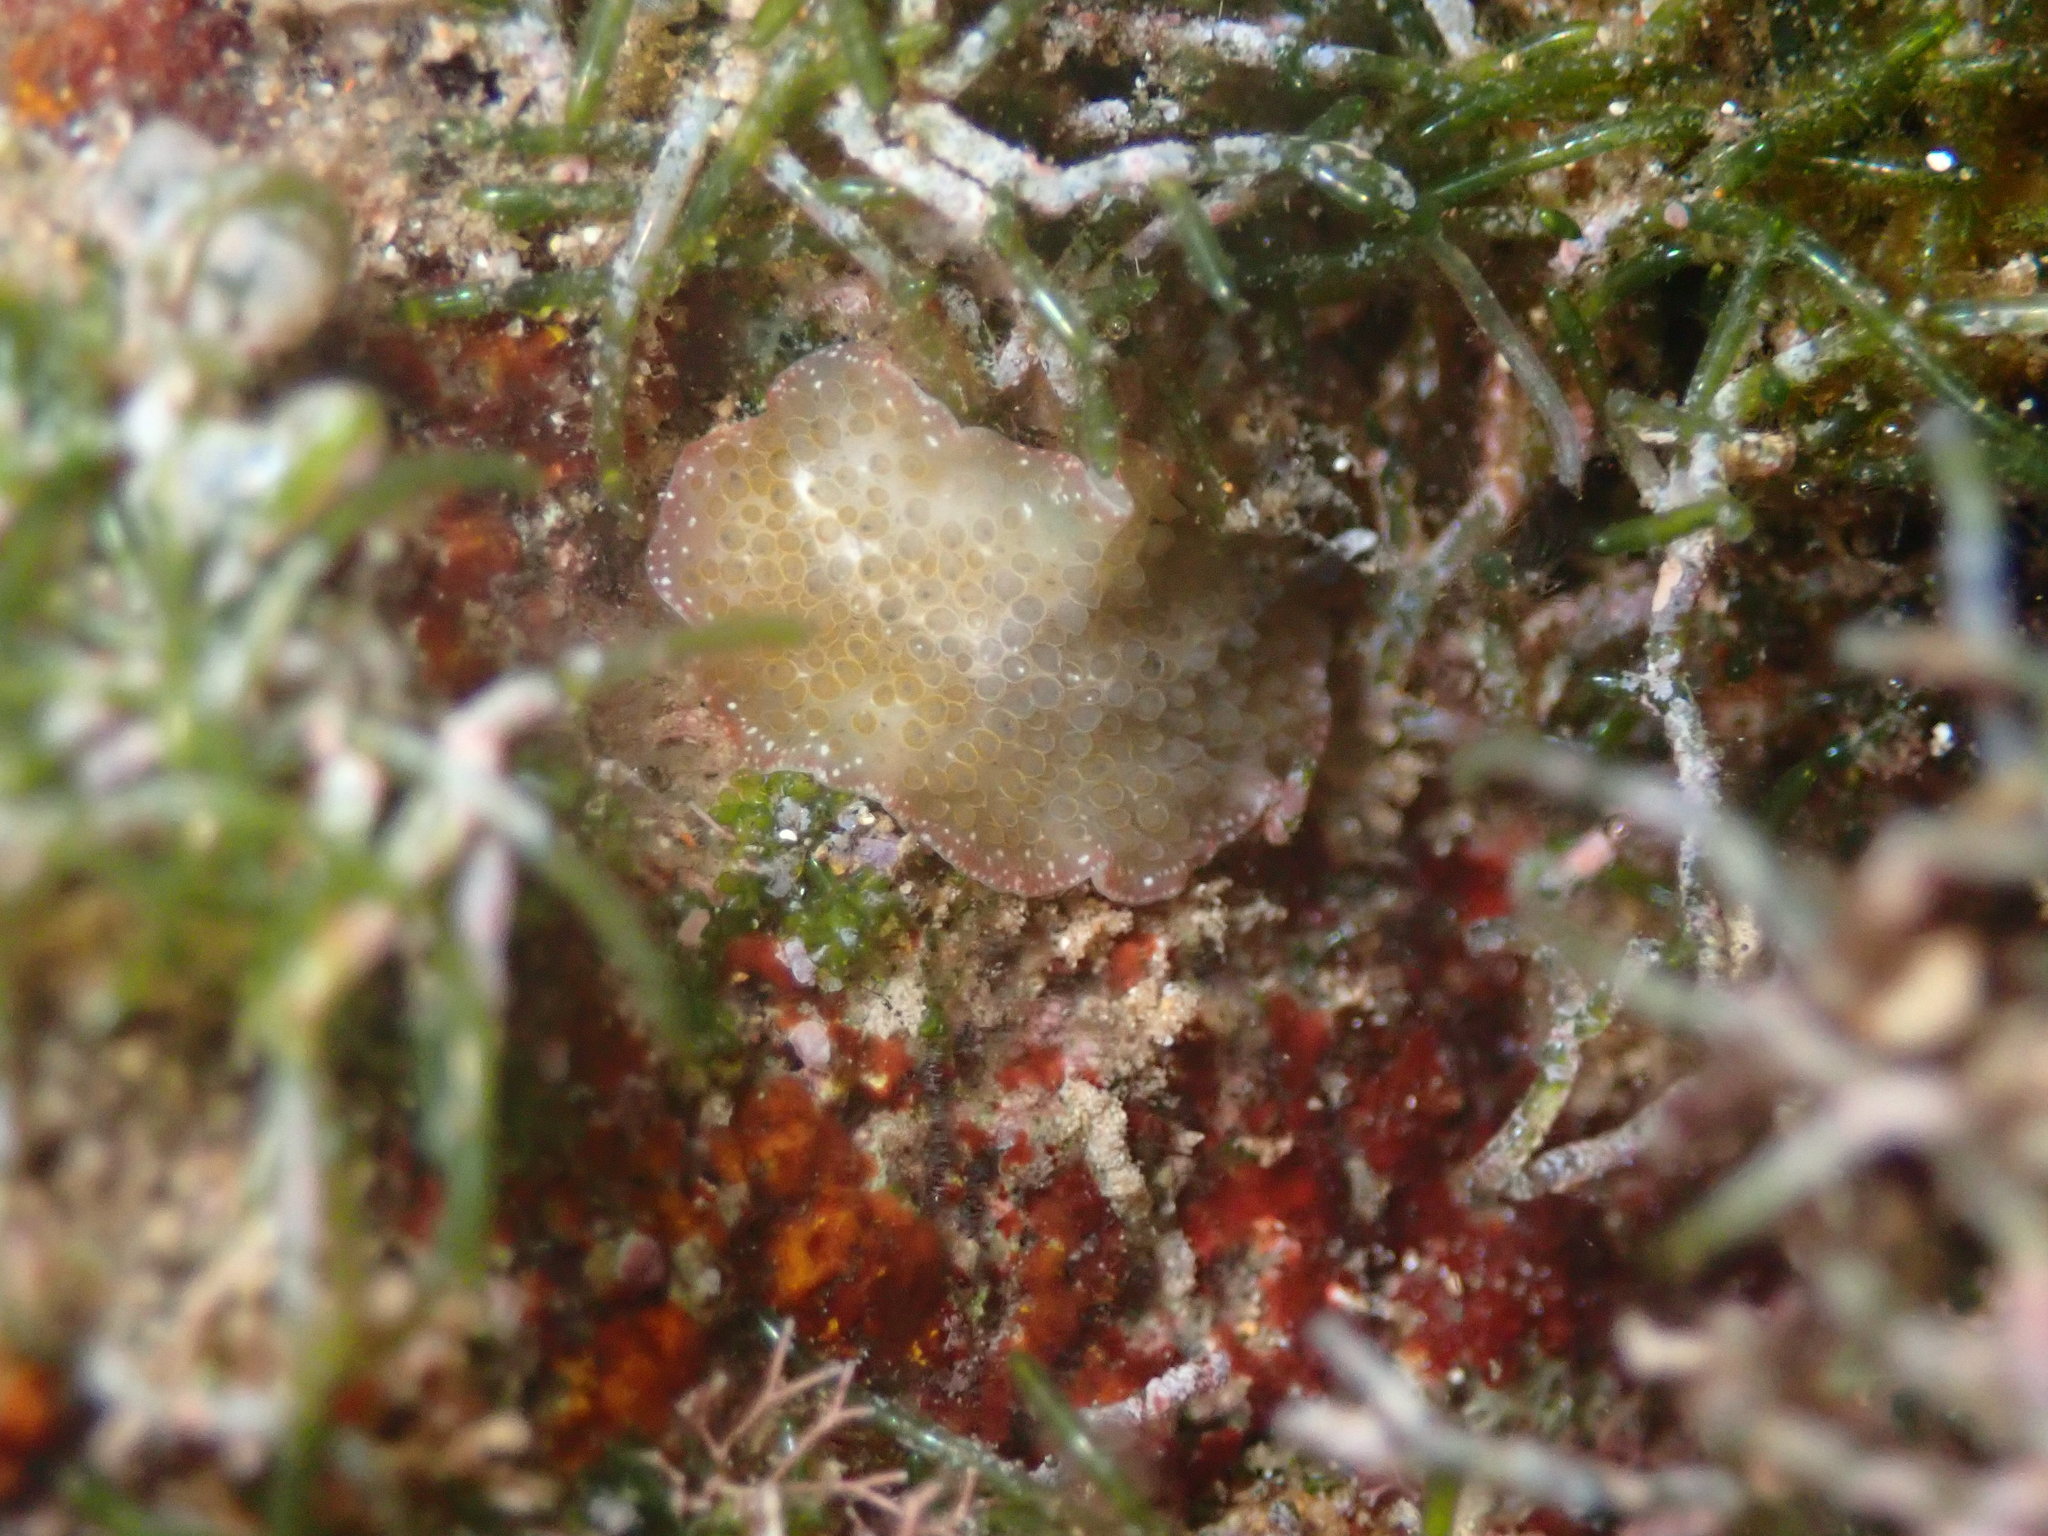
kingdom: Animalia
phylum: Platyhelminthes
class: Turbellaria
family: Pseudocerotidae
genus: Thysanozoon
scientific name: Thysanozoon tentaculatum
